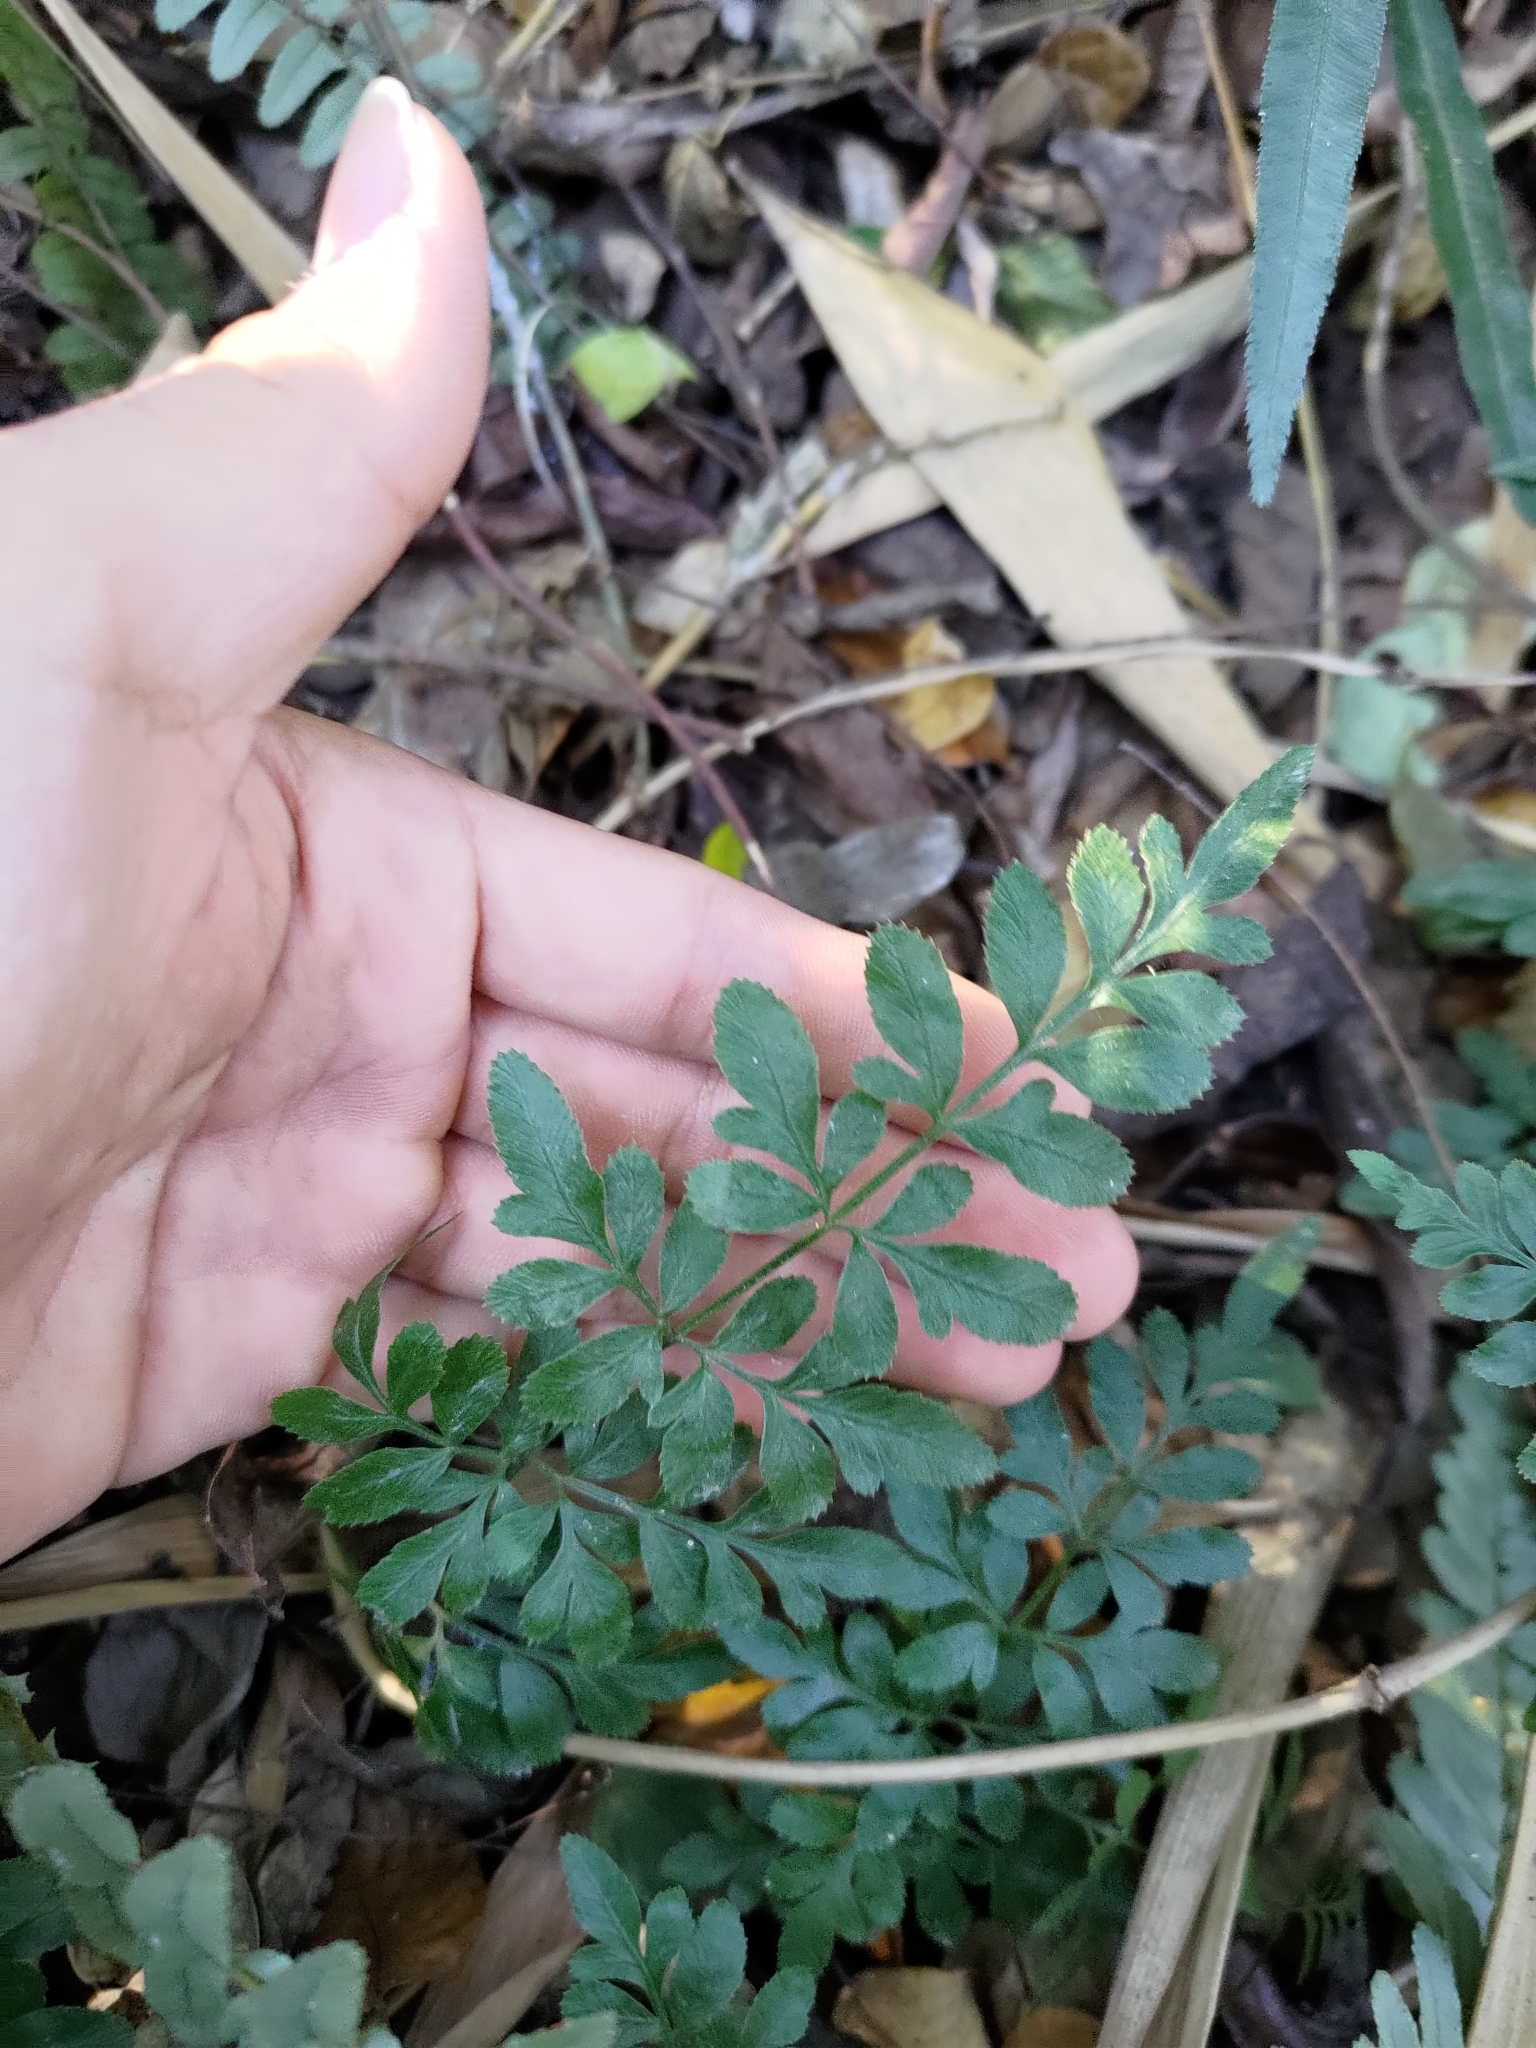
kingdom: Plantae
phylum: Tracheophyta
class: Polypodiopsida
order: Polypodiales
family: Pteridaceae
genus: Pteris
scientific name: Pteris ensiformis
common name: Sword brake
